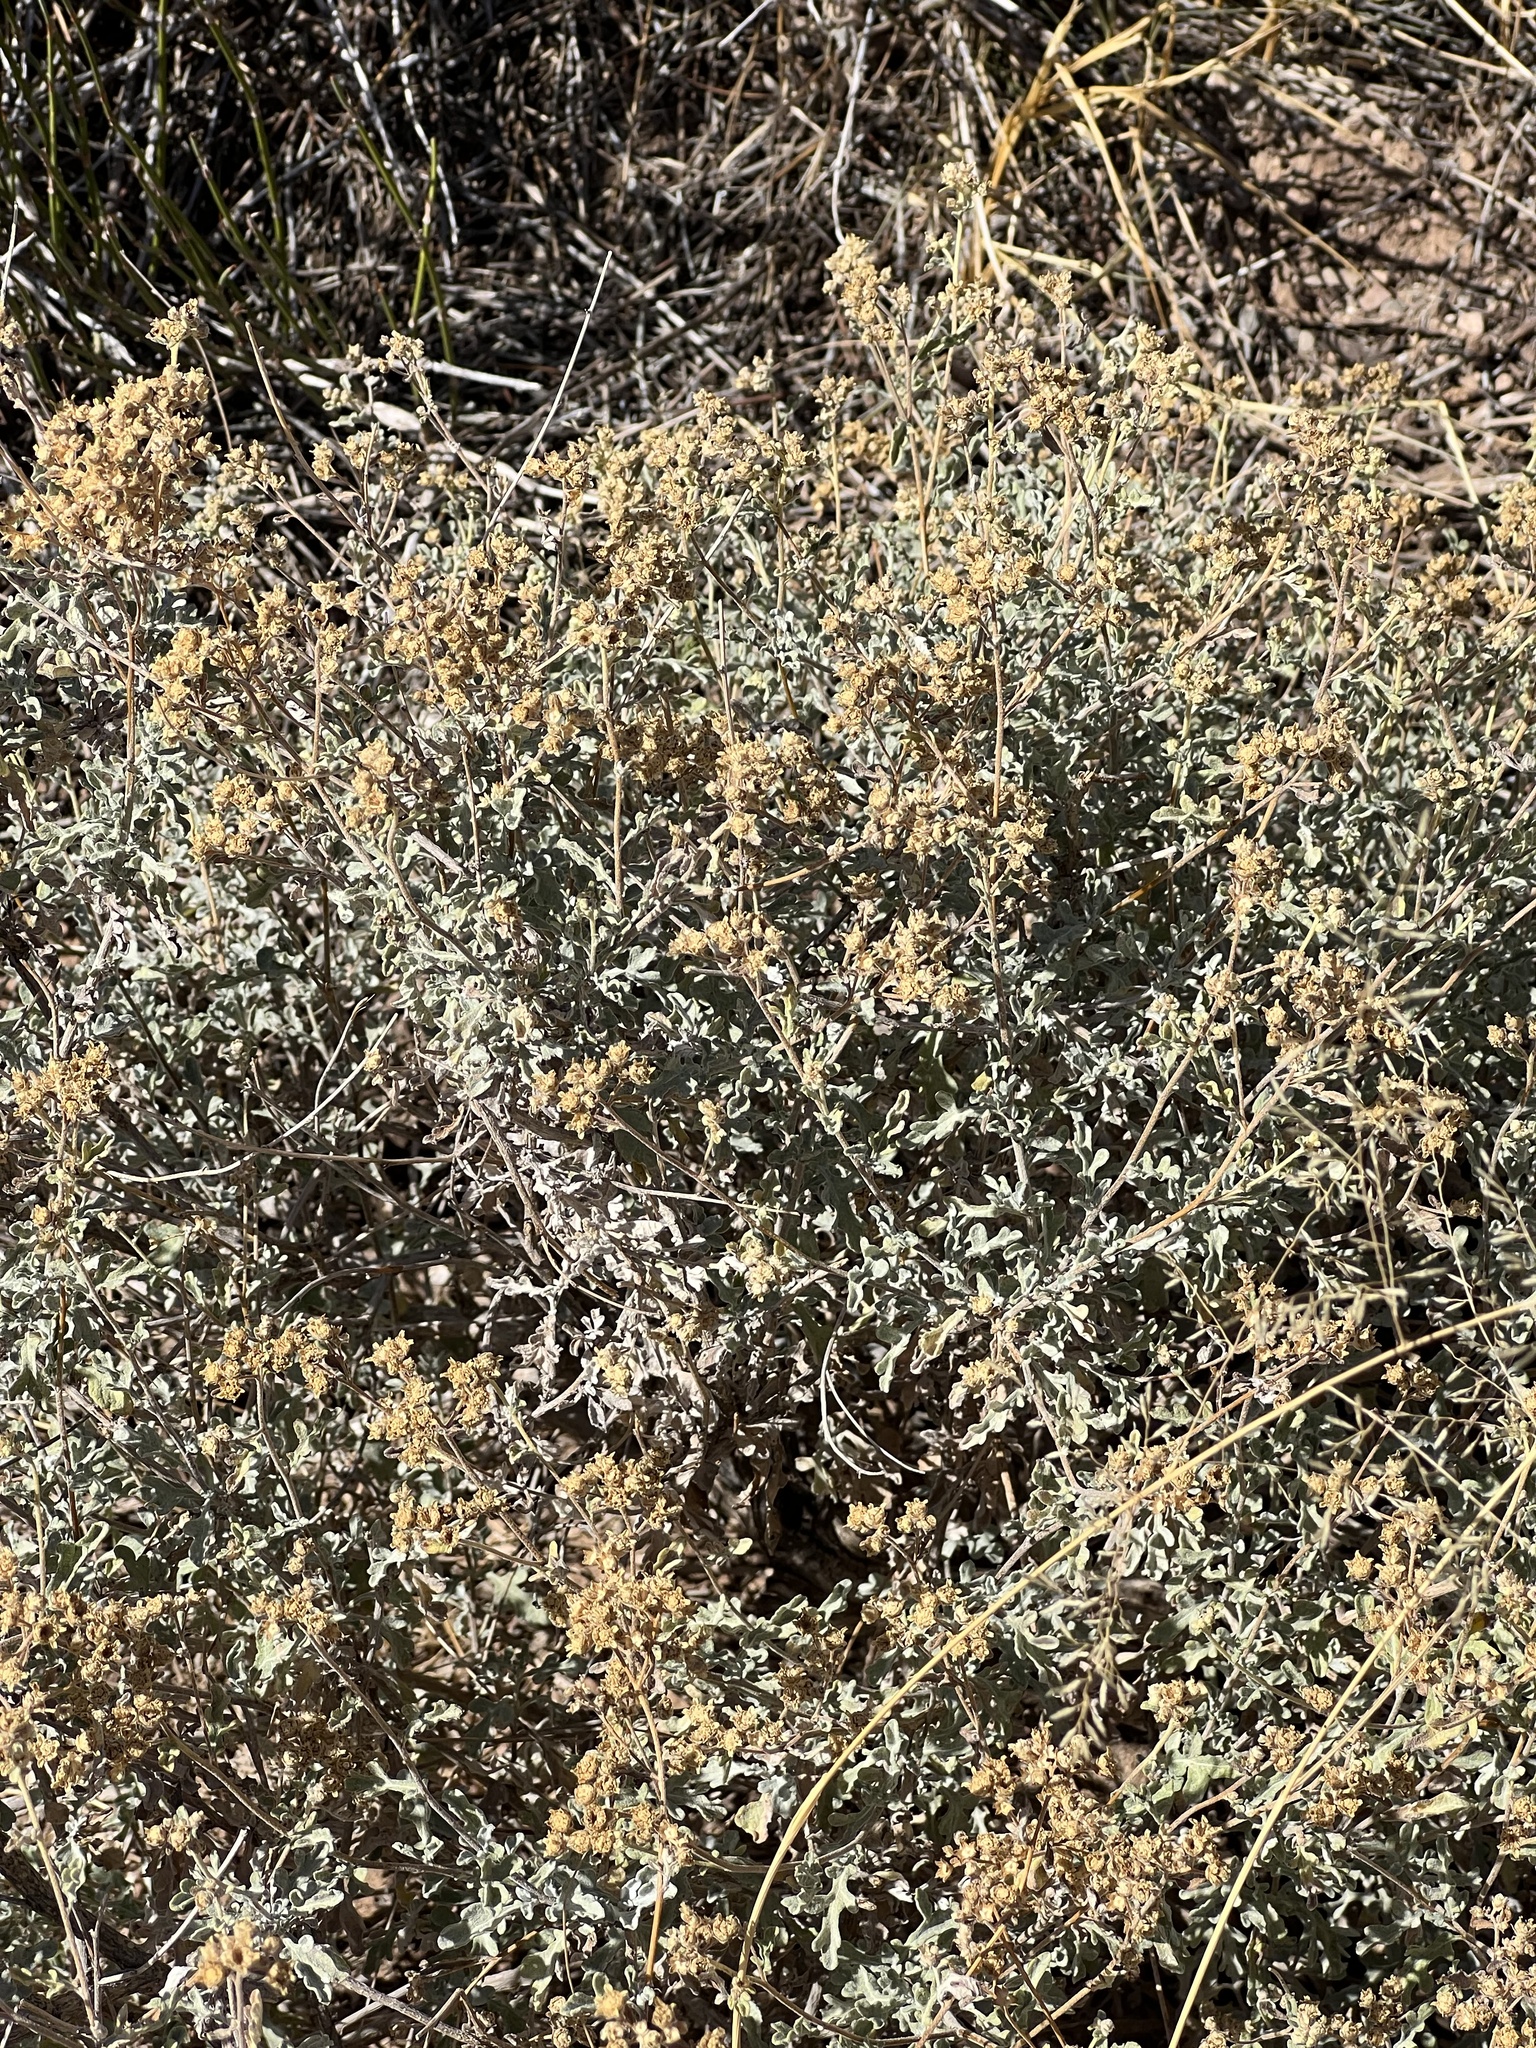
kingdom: Plantae
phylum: Tracheophyta
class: Magnoliopsida
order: Asterales
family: Asteraceae
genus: Parthenium
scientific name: Parthenium incanum
